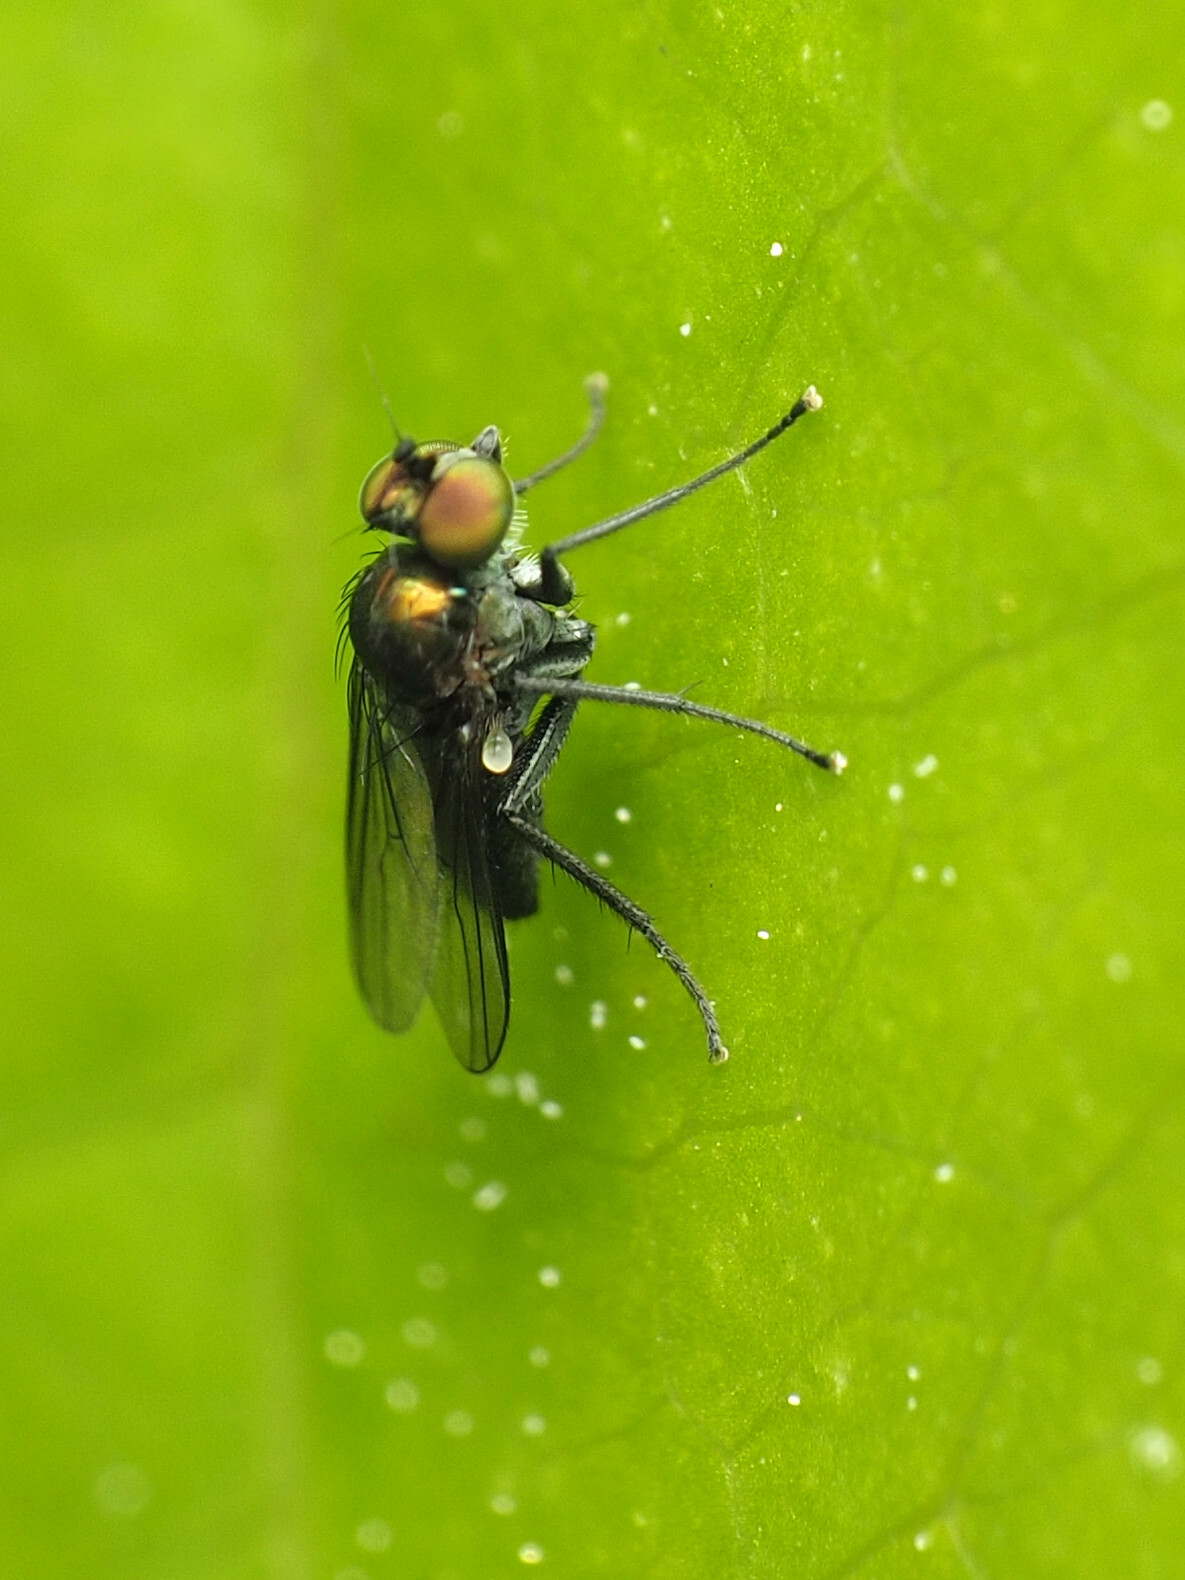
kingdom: Animalia
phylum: Arthropoda
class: Insecta
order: Diptera
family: Dolichopodidae
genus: Chrysotus
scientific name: Chrysotus subcostatus
